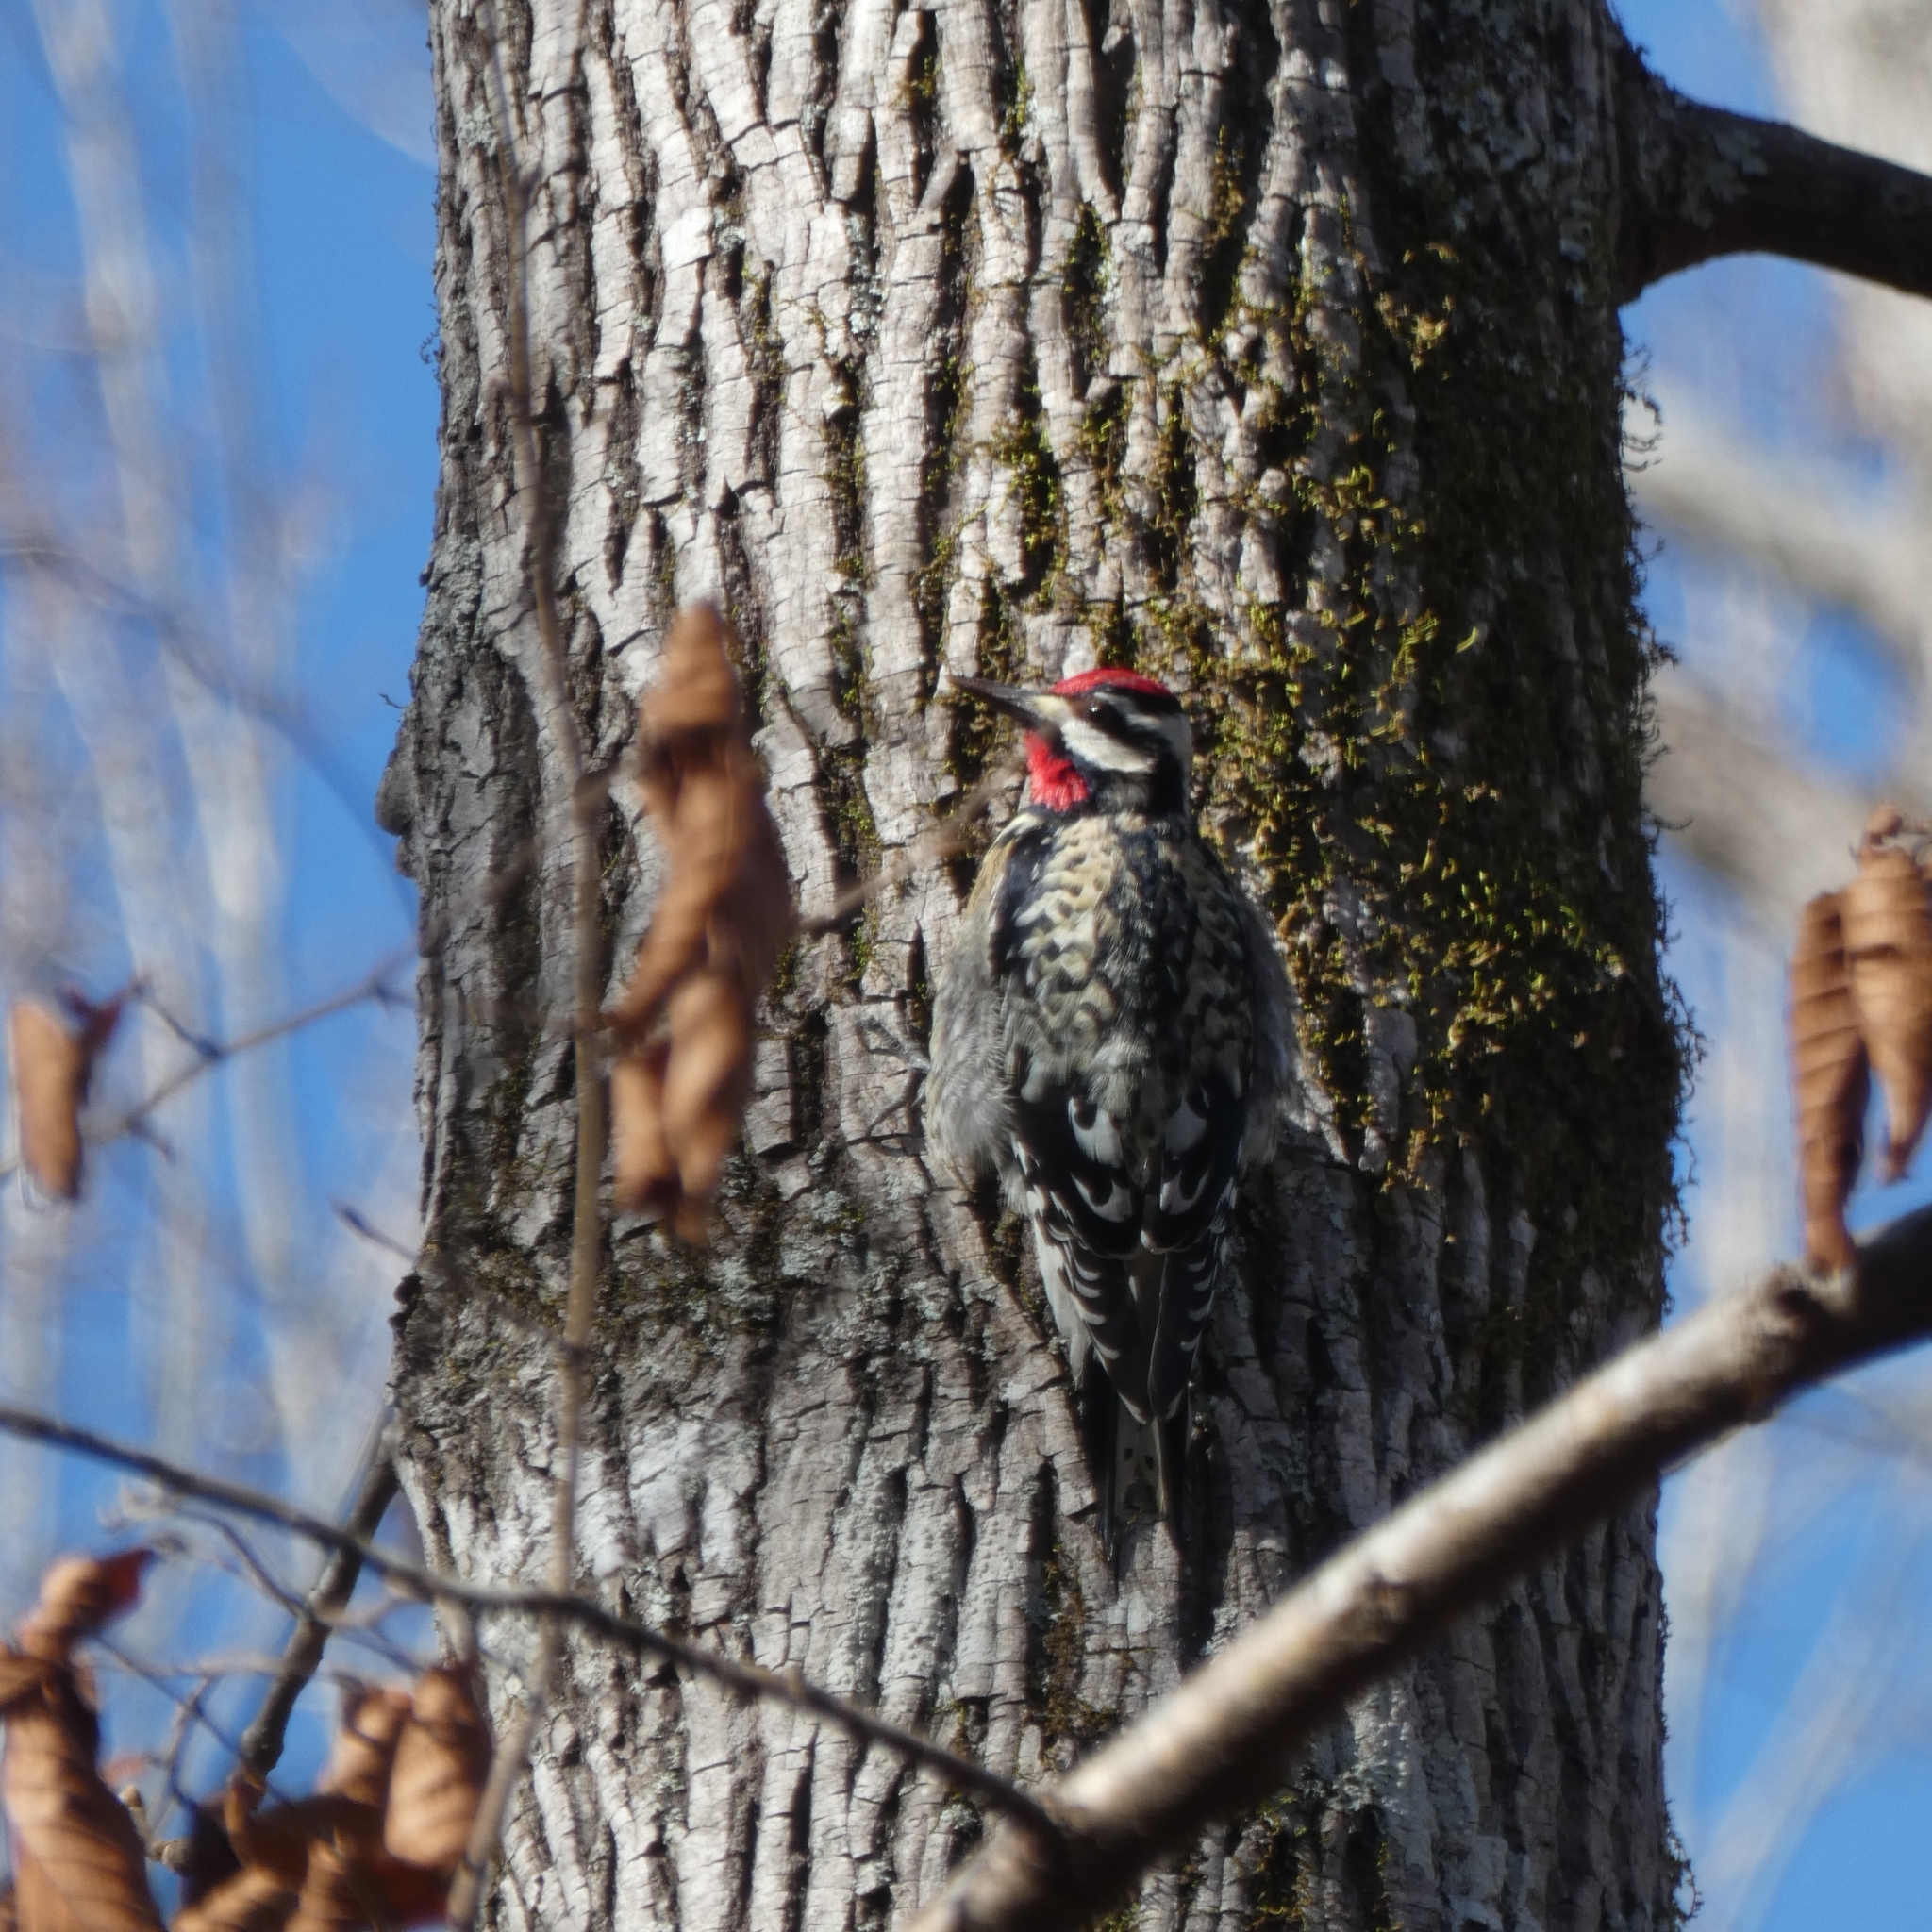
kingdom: Animalia
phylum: Chordata
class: Aves
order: Piciformes
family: Picidae
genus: Sphyrapicus
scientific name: Sphyrapicus varius
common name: Yellow-bellied sapsucker
